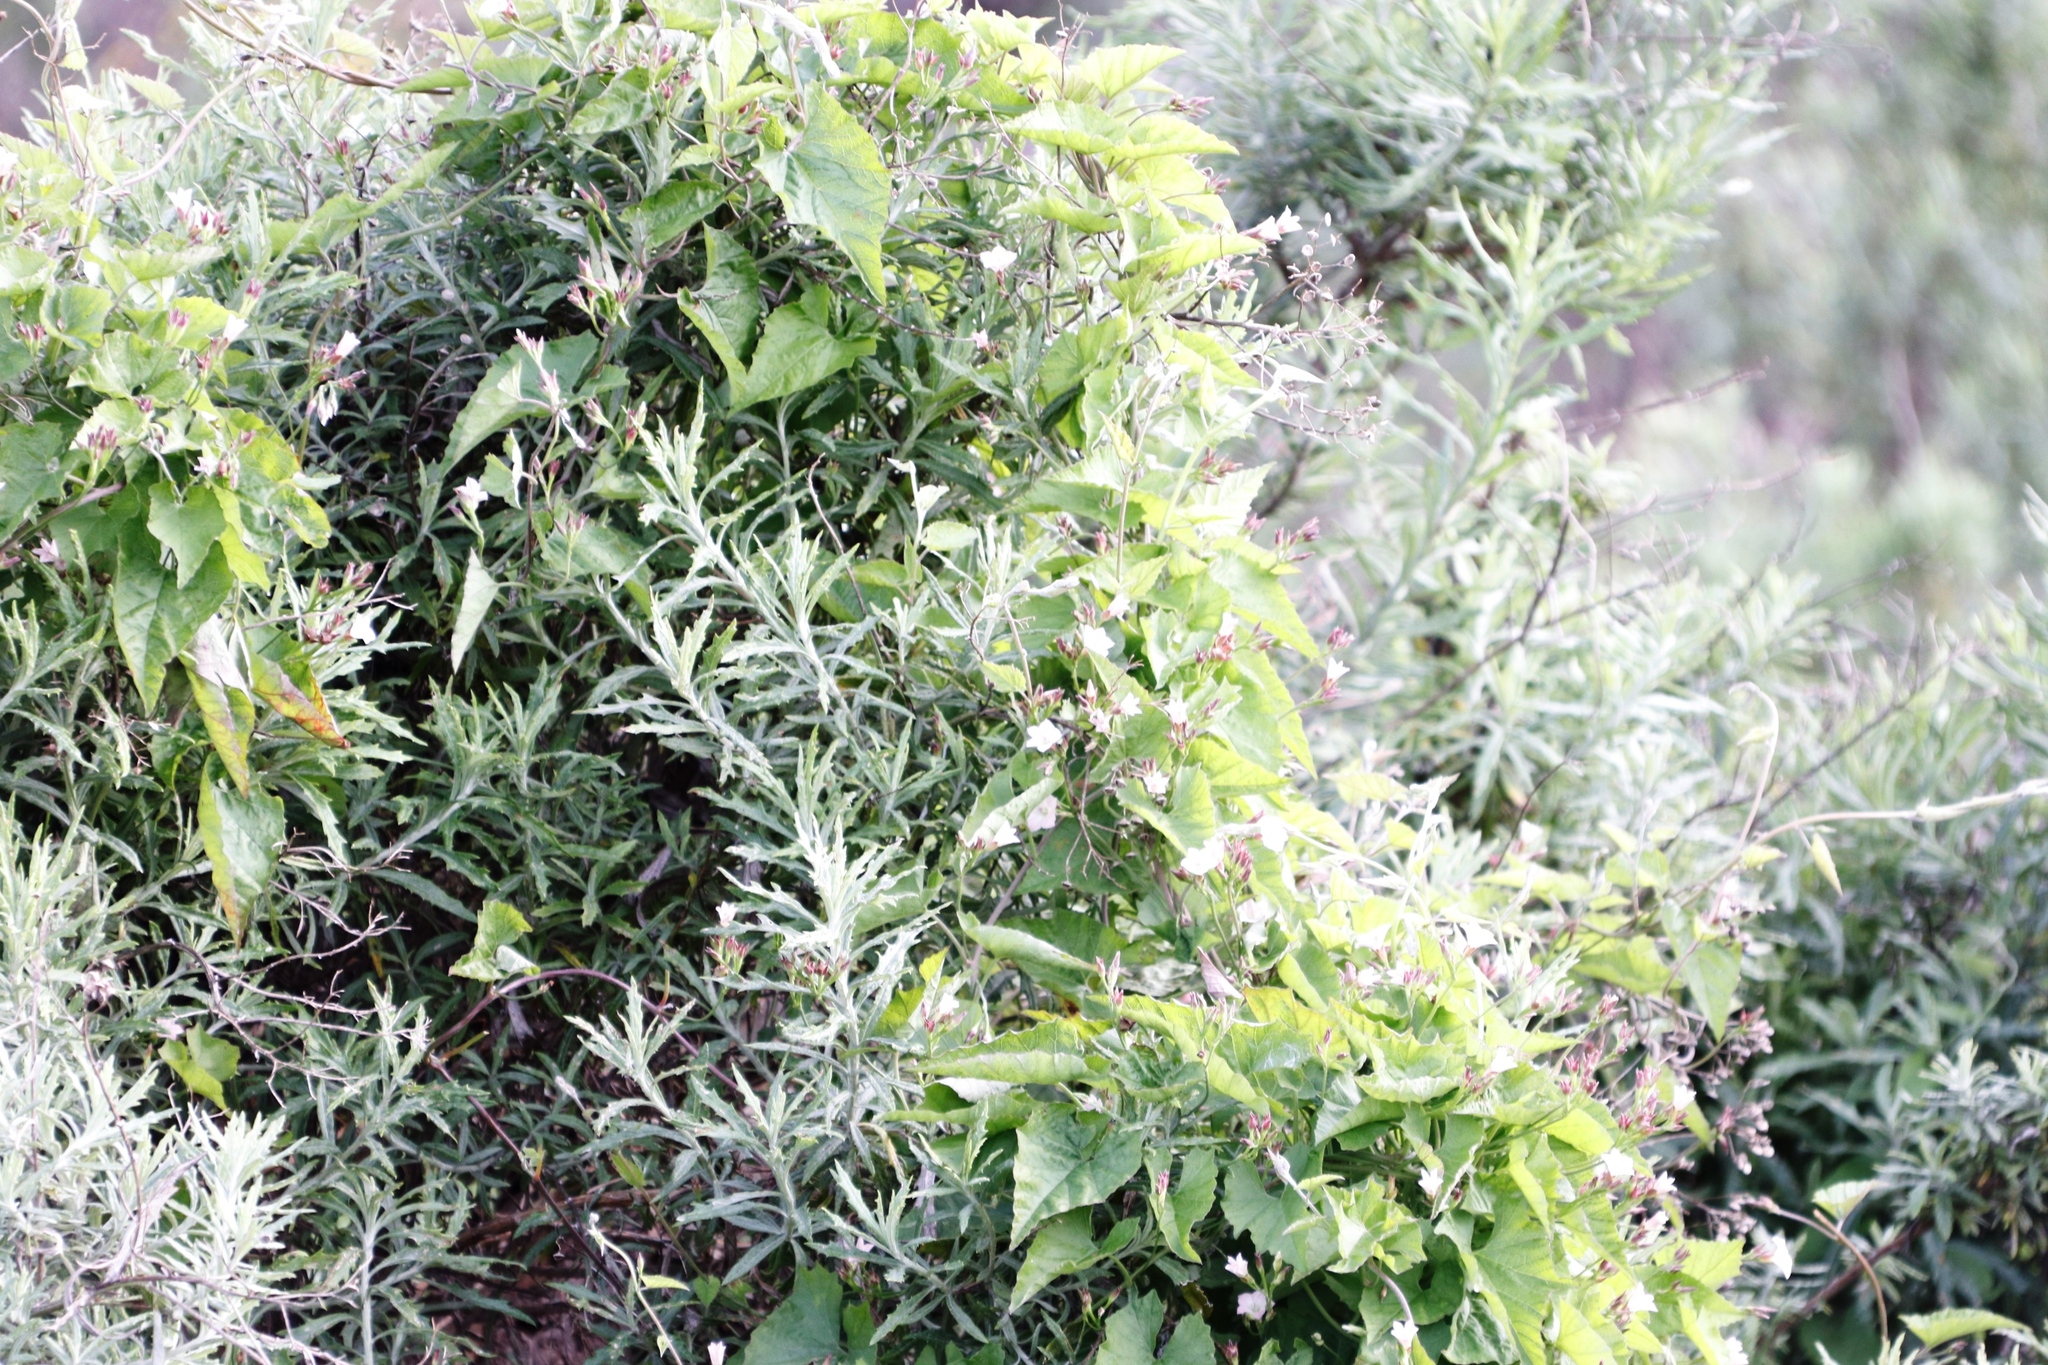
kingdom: Plantae
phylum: Tracheophyta
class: Magnoliopsida
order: Solanales
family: Convolvulaceae
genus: Convolvulus
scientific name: Convolvulus farinosus
